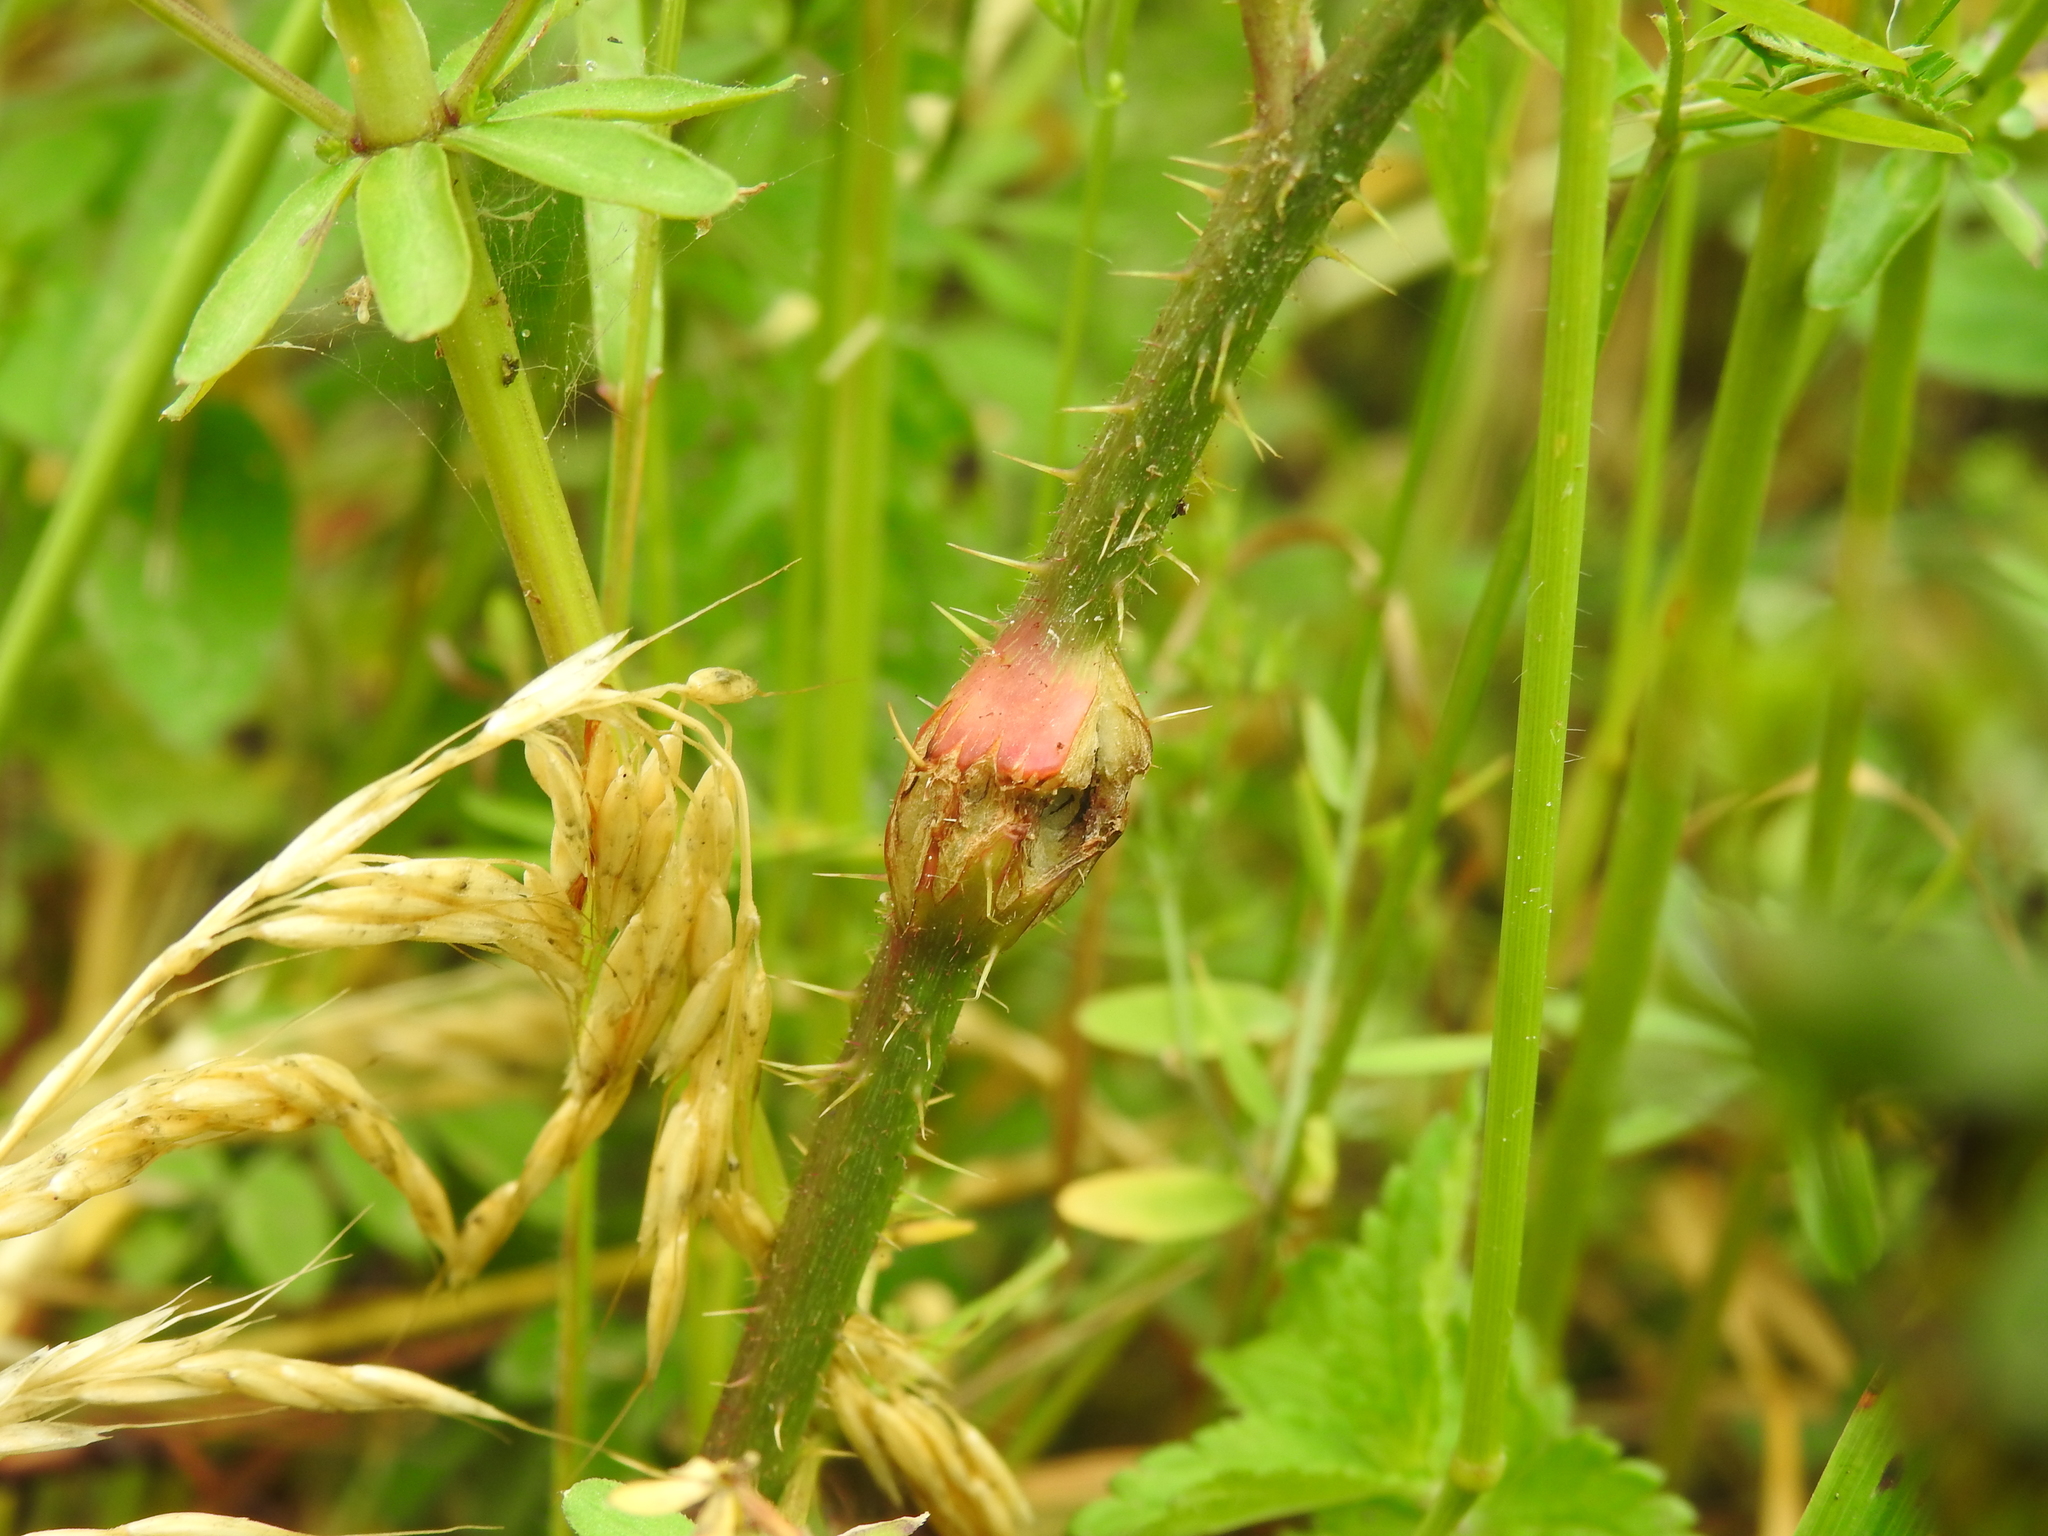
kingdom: Animalia
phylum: Arthropoda
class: Insecta
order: Diptera
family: Cecidomyiidae
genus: Lasioptera
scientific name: Lasioptera rubi
